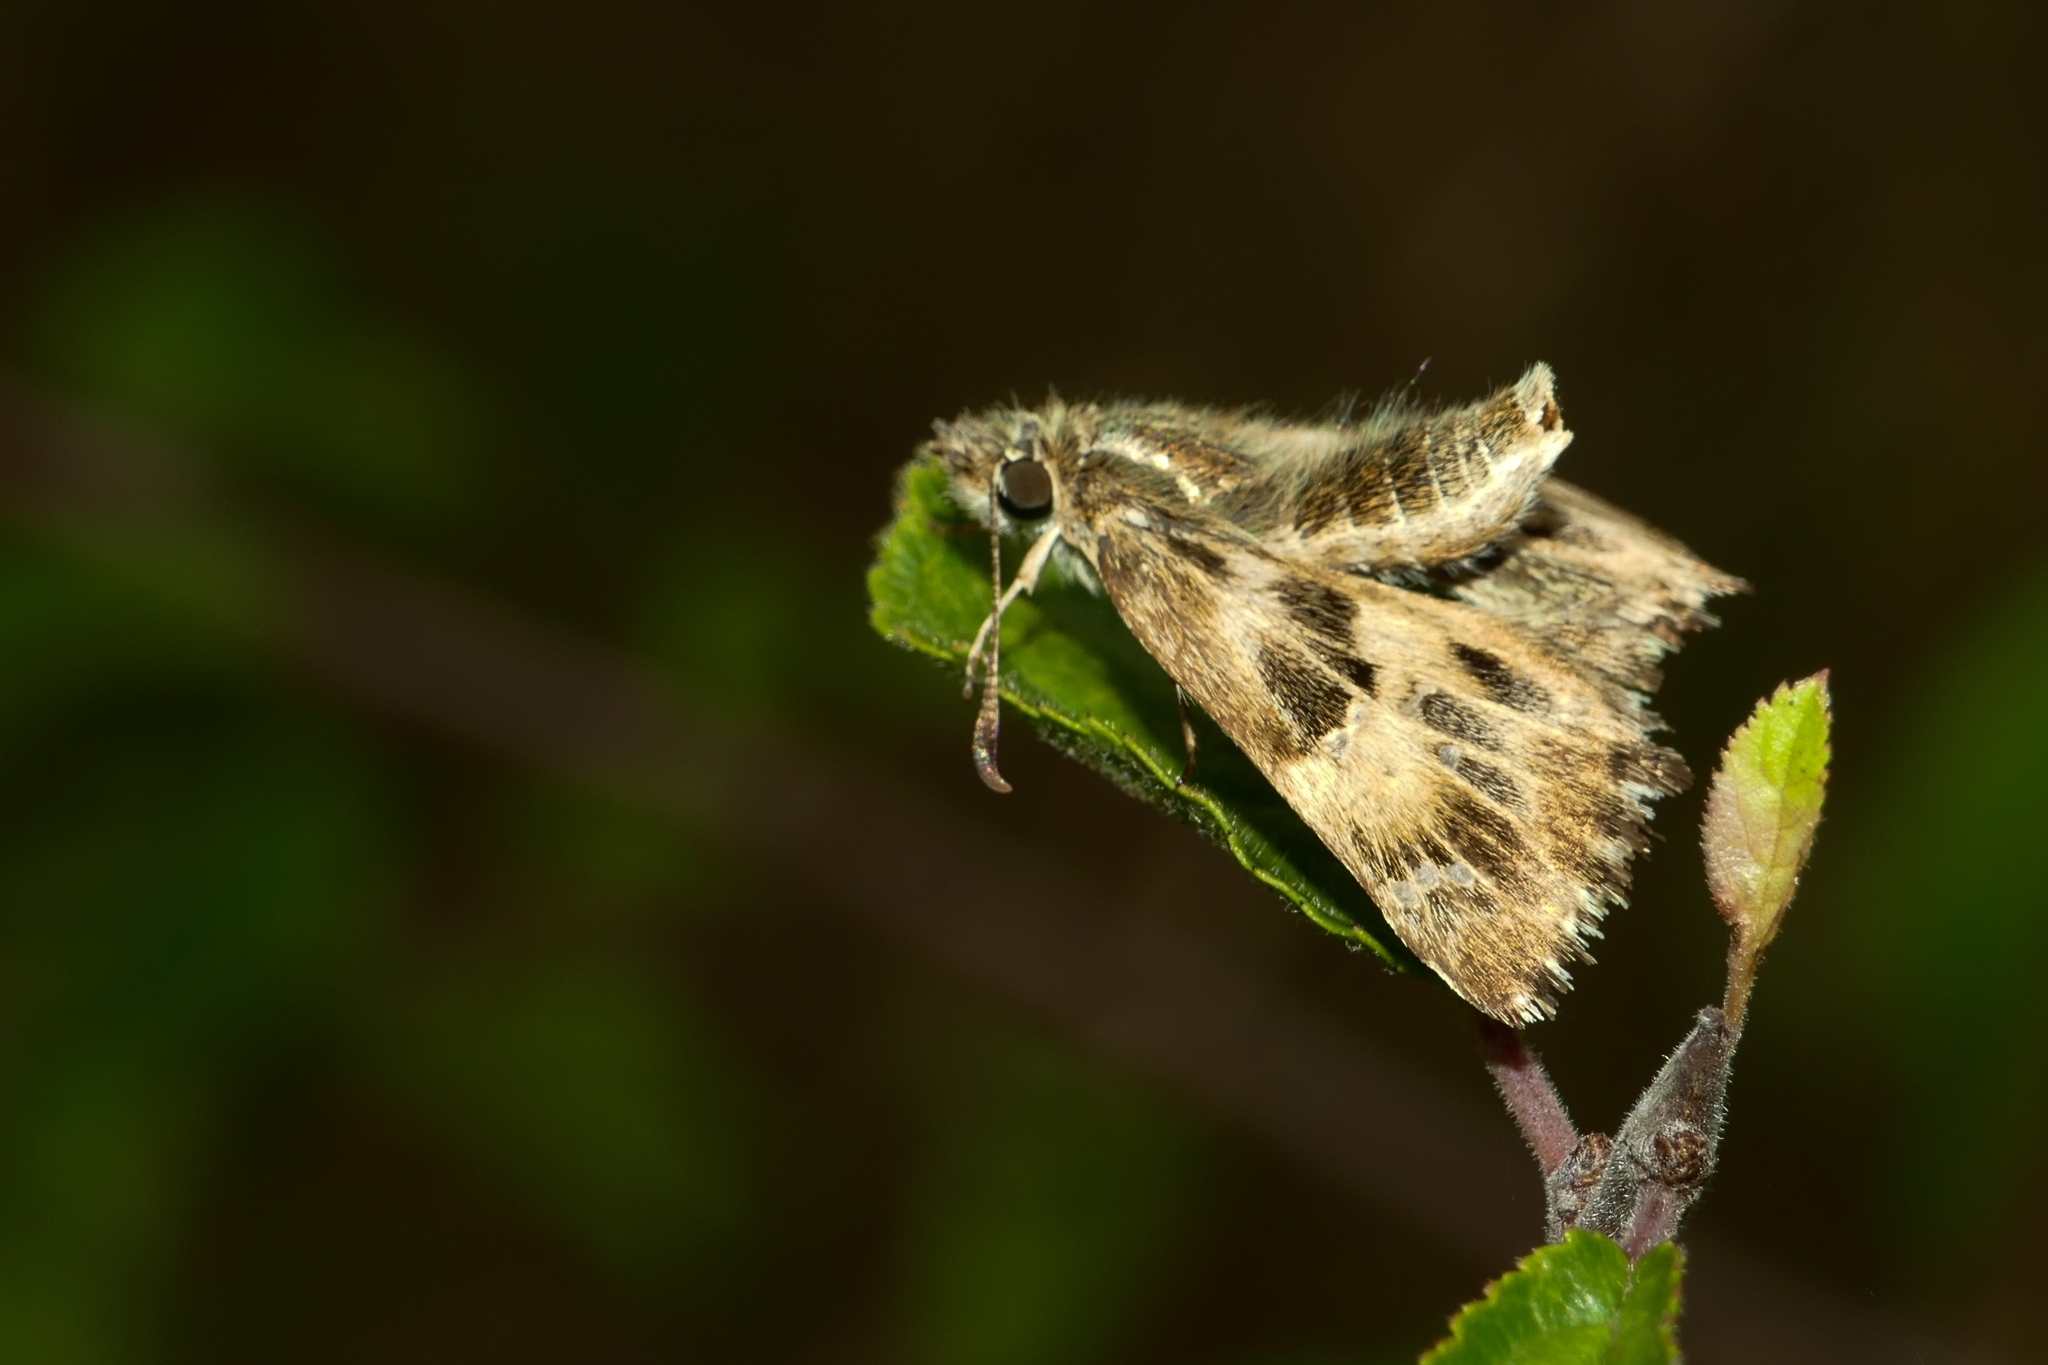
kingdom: Animalia
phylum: Arthropoda
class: Insecta
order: Lepidoptera
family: Hesperiidae
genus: Carcharodus
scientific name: Carcharodus alceae
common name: Mallow skipper
